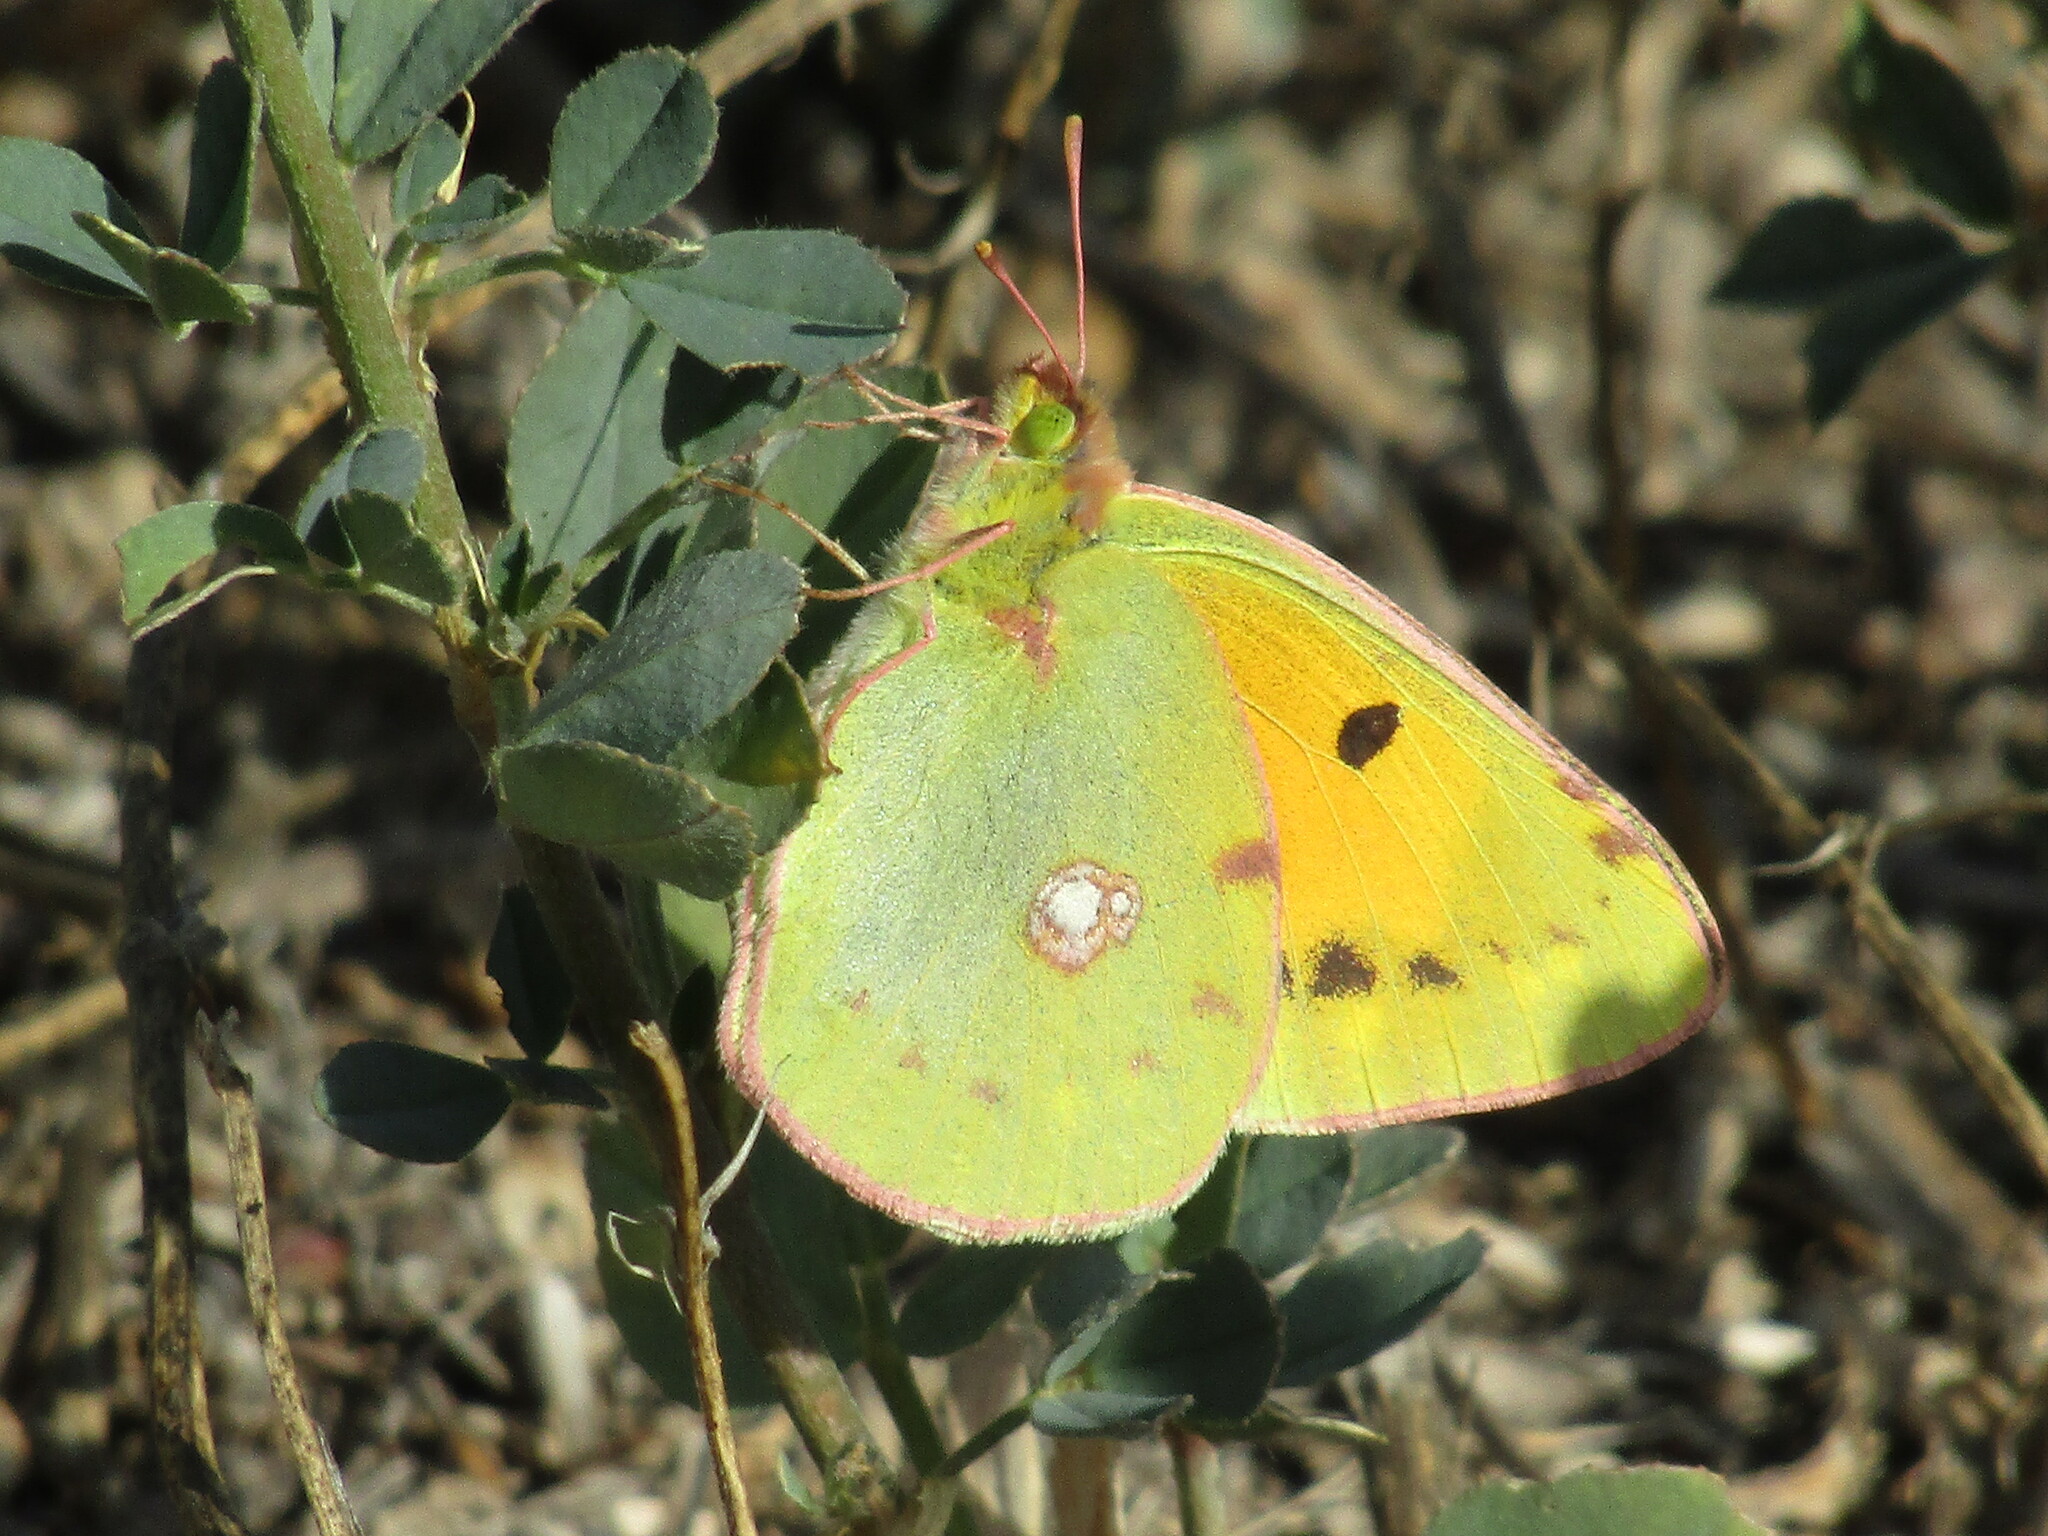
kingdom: Animalia
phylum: Arthropoda
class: Insecta
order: Lepidoptera
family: Pieridae
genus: Colias
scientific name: Colias croceus
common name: Clouded yellow
